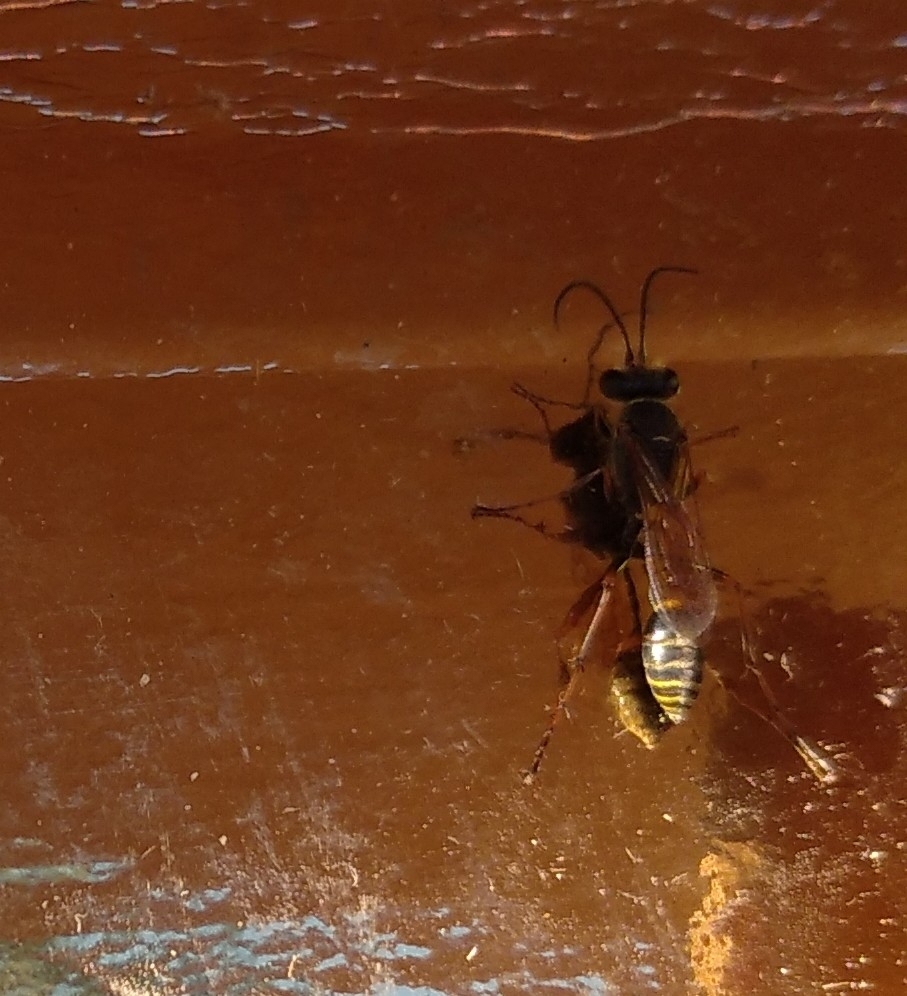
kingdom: Animalia
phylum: Arthropoda
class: Insecta
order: Hymenoptera
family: Sphecidae
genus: Sceliphron
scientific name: Sceliphron curvatum
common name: Pèlopèe
